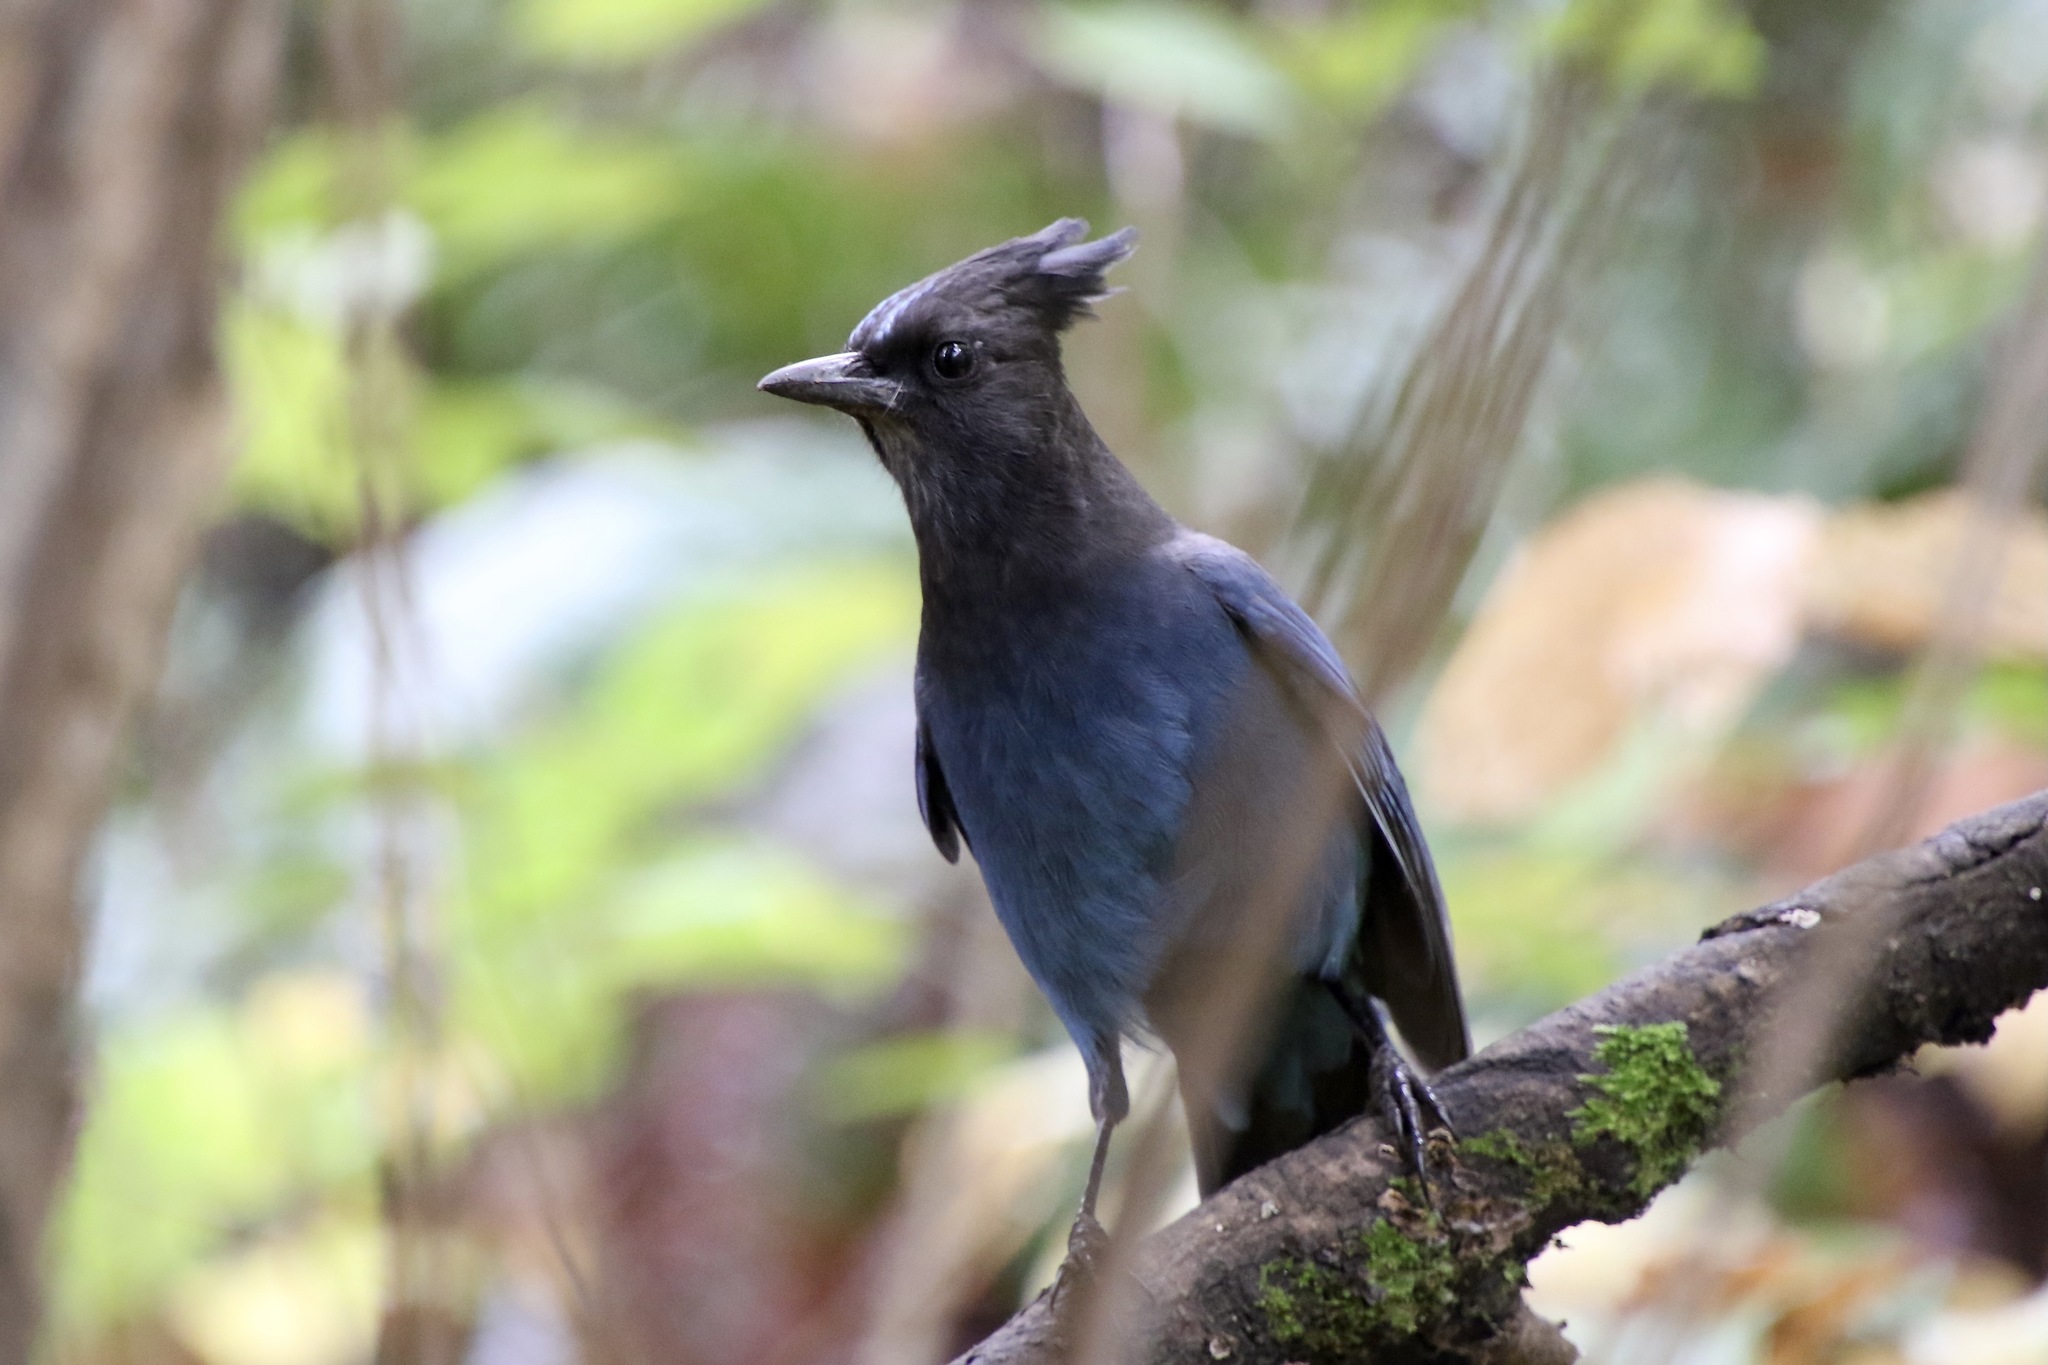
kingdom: Animalia
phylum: Chordata
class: Aves
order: Passeriformes
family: Corvidae
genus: Cyanocitta
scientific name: Cyanocitta stelleri
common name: Steller's jay
